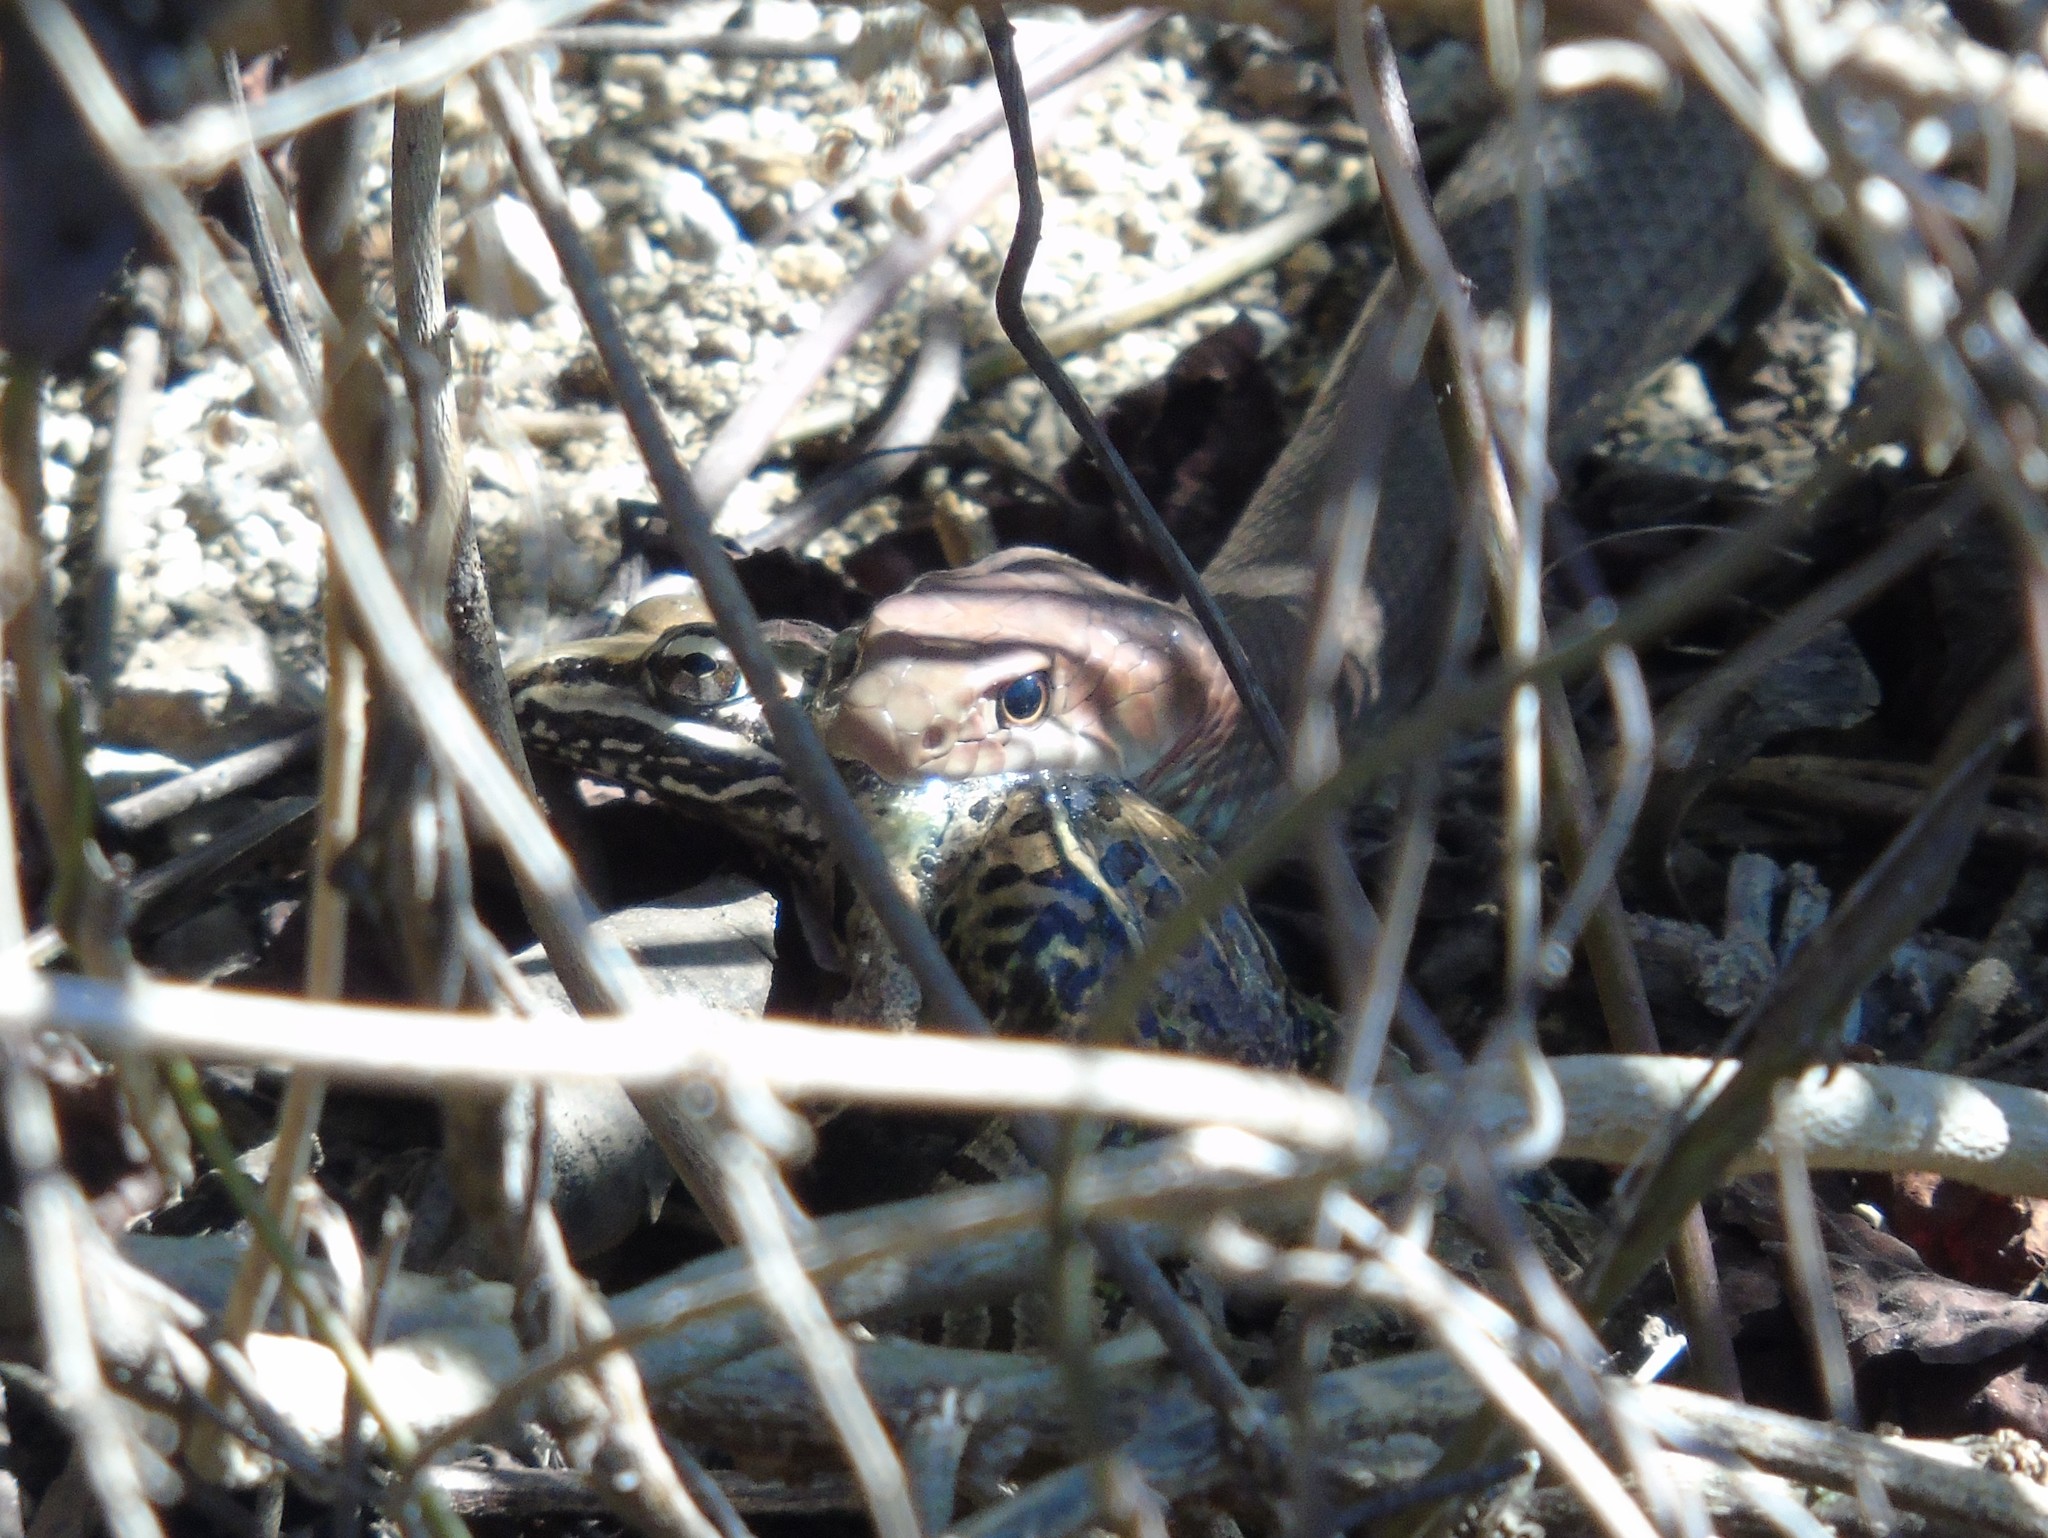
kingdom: Animalia
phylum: Chordata
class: Squamata
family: Colubridae
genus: Masticophis
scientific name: Masticophis mentovarius
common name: Neotropical whip snake
